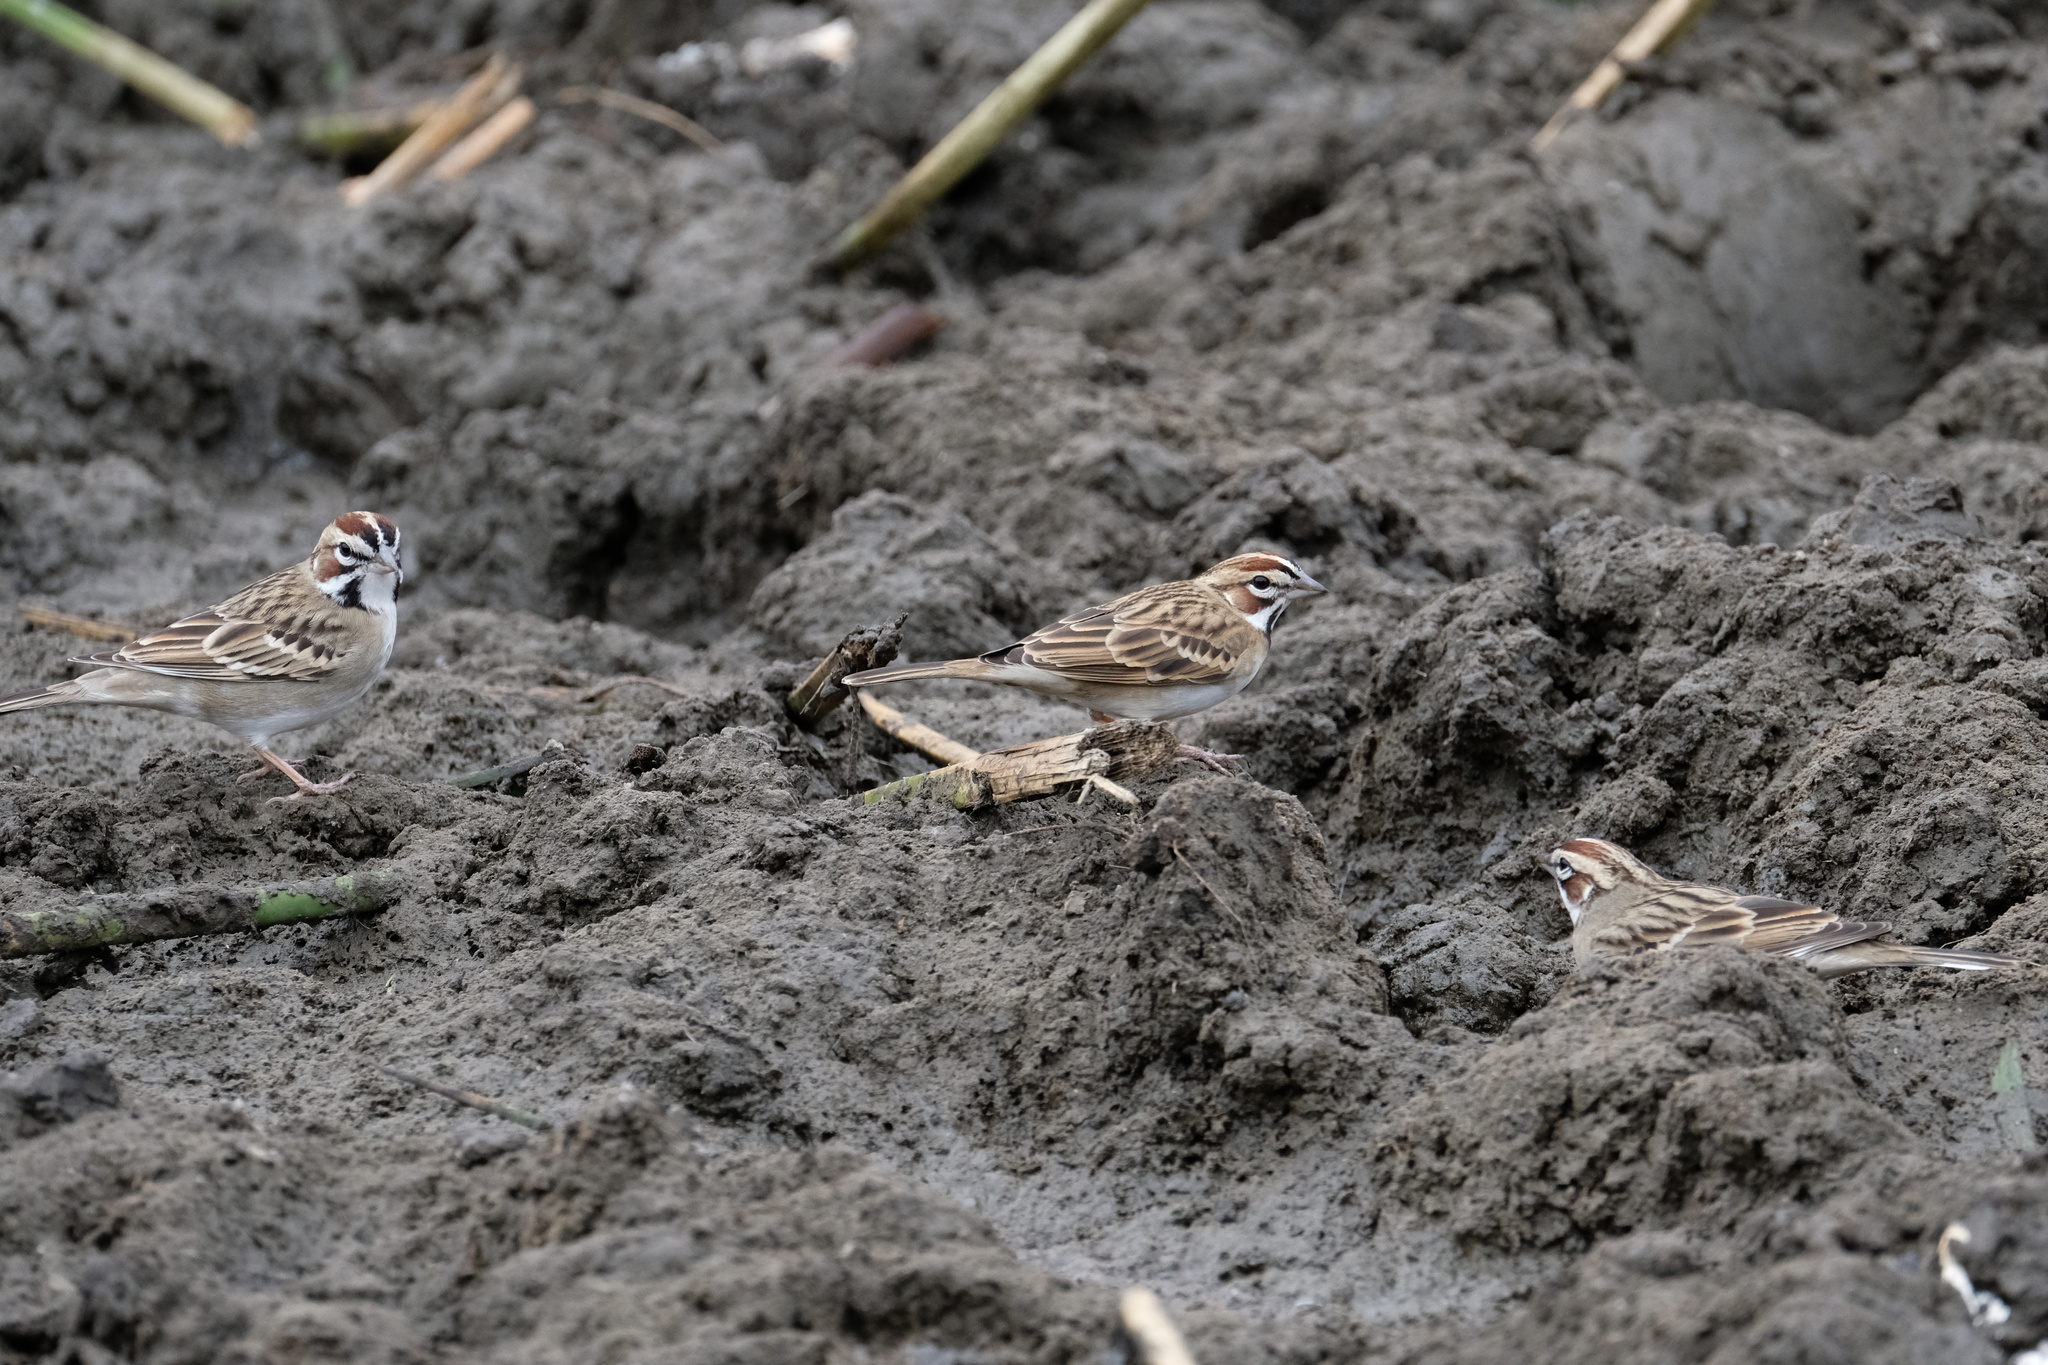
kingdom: Animalia
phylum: Chordata
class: Aves
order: Passeriformes
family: Passerellidae
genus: Chondestes
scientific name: Chondestes grammacus
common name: Lark sparrow
